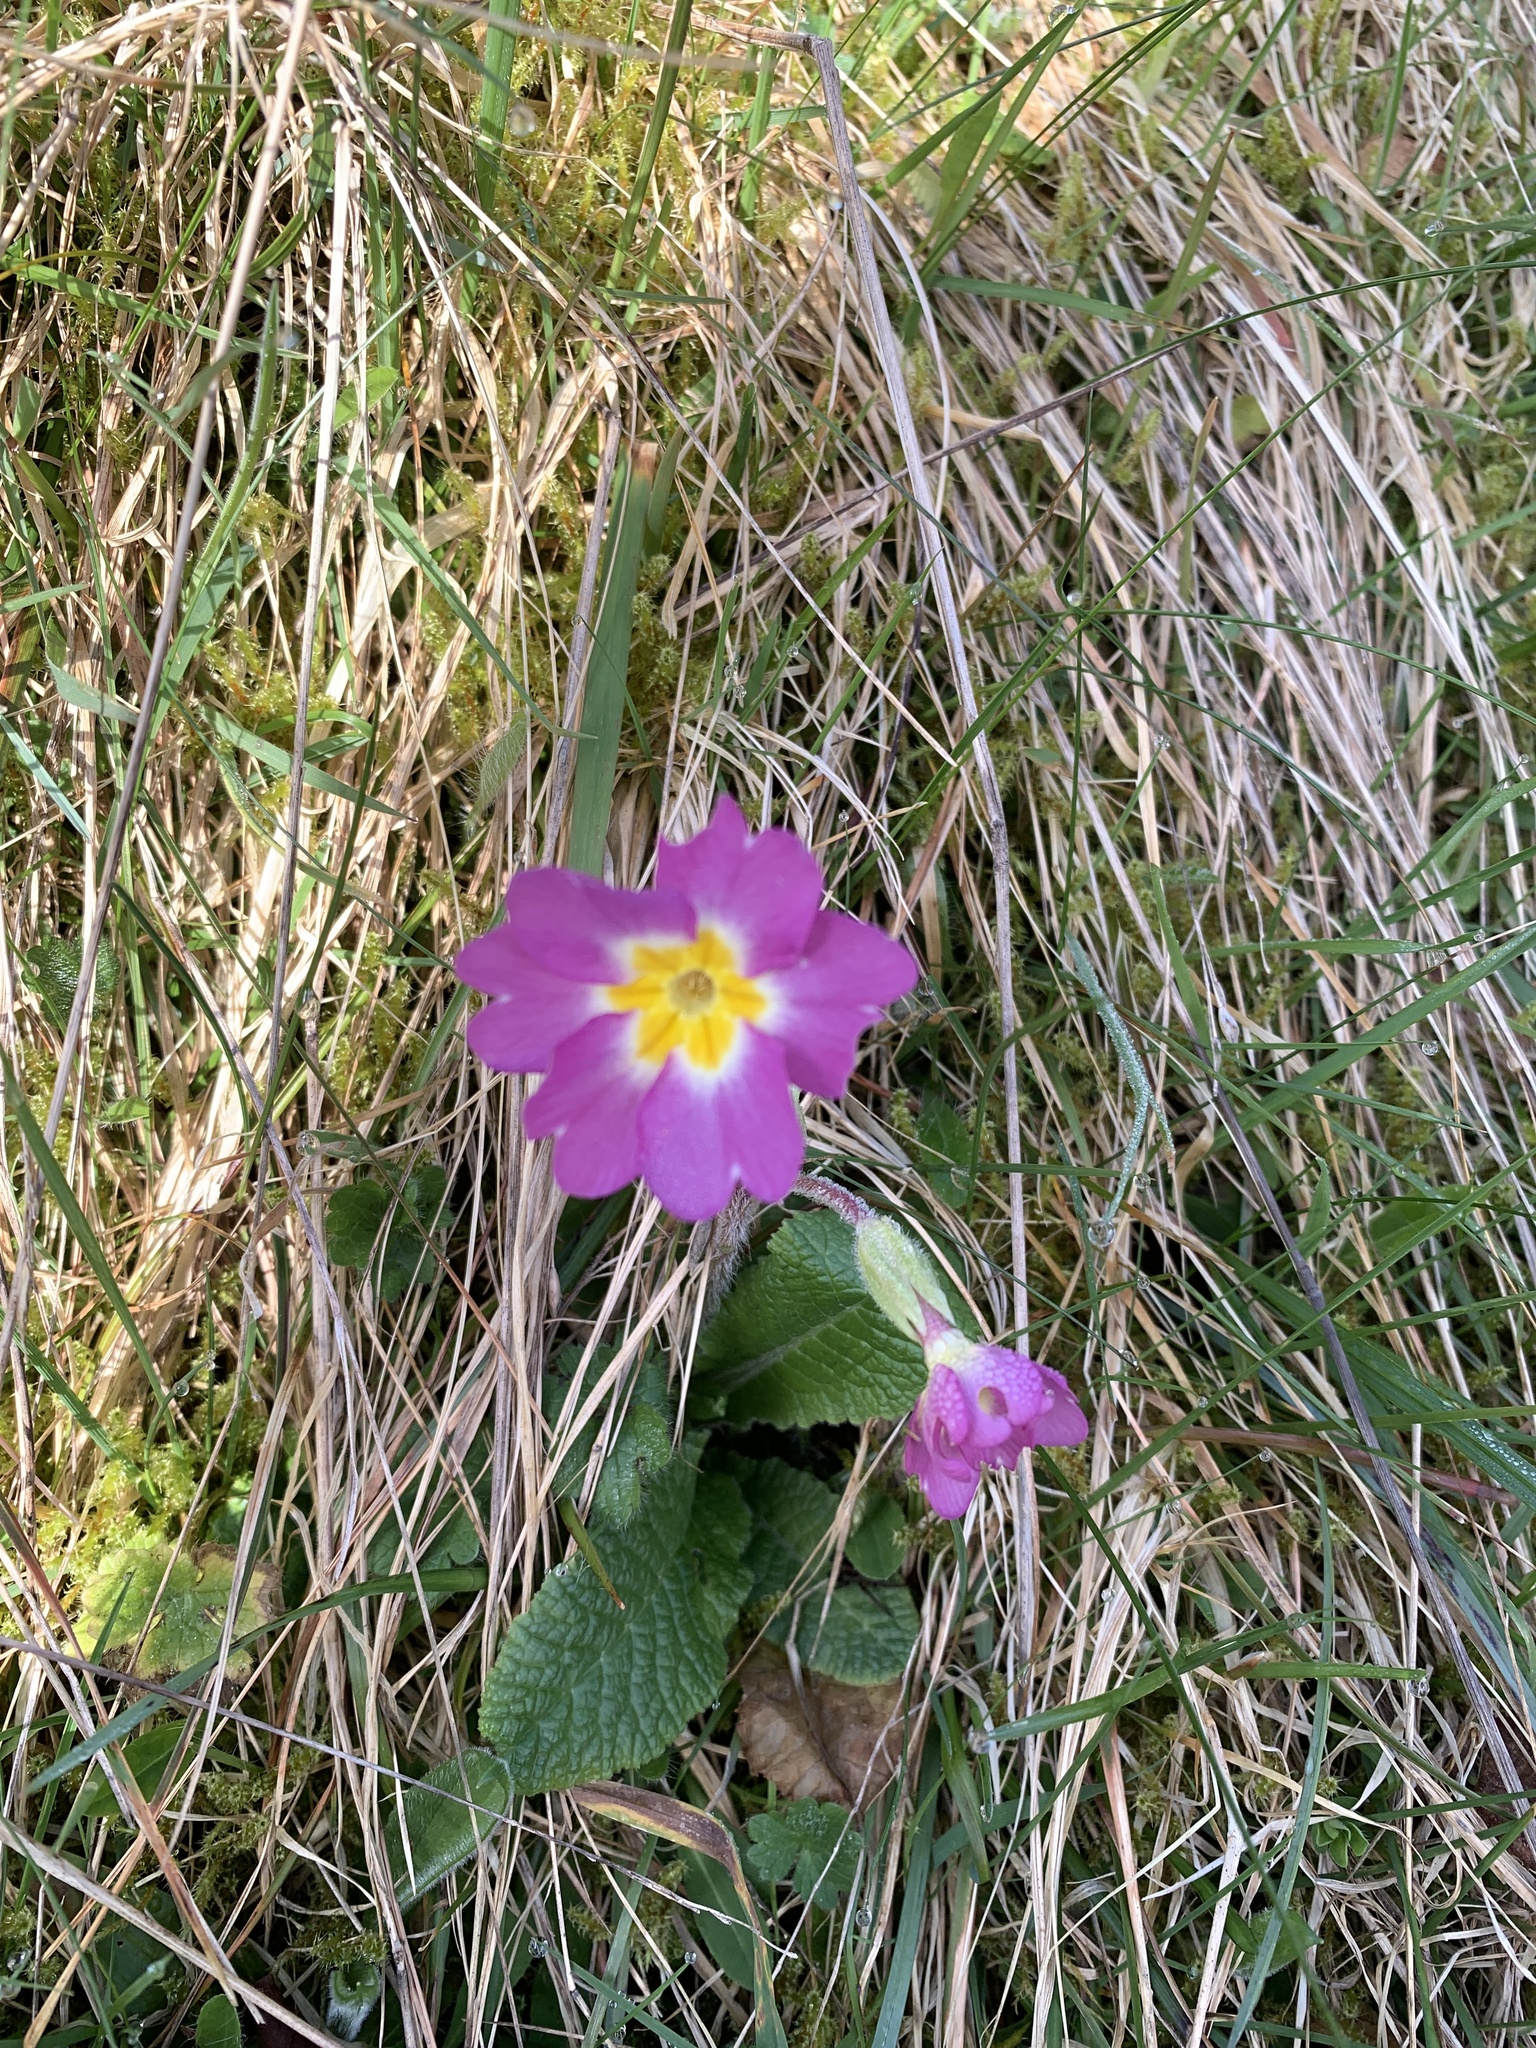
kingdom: Plantae
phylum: Tracheophyta
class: Magnoliopsida
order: Ericales
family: Primulaceae
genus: Primula
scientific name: Primula vulgaris
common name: Primrose
